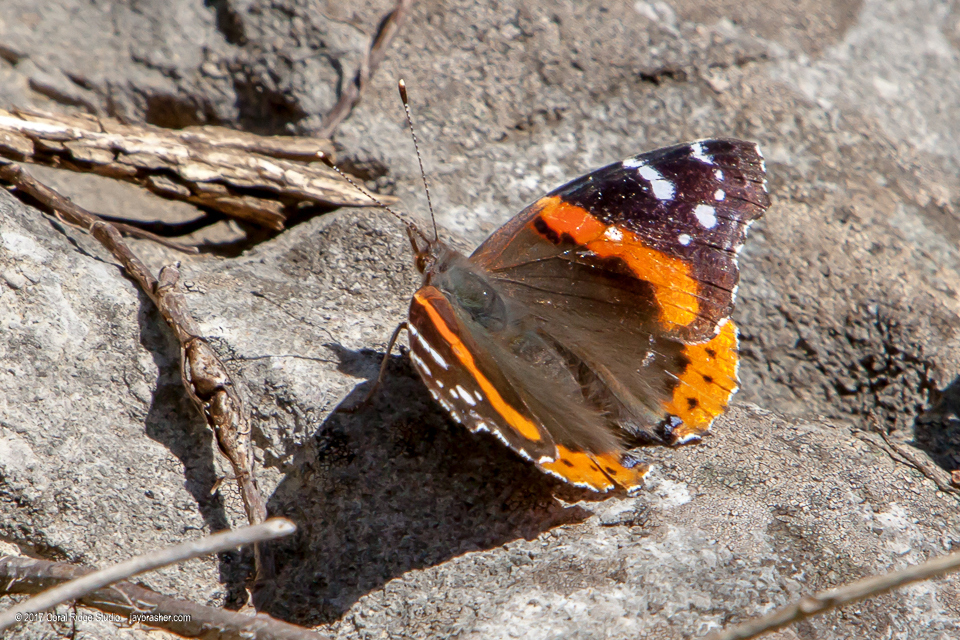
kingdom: Animalia
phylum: Arthropoda
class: Insecta
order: Lepidoptera
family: Nymphalidae
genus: Vanessa
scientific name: Vanessa atalanta
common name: Red admiral
